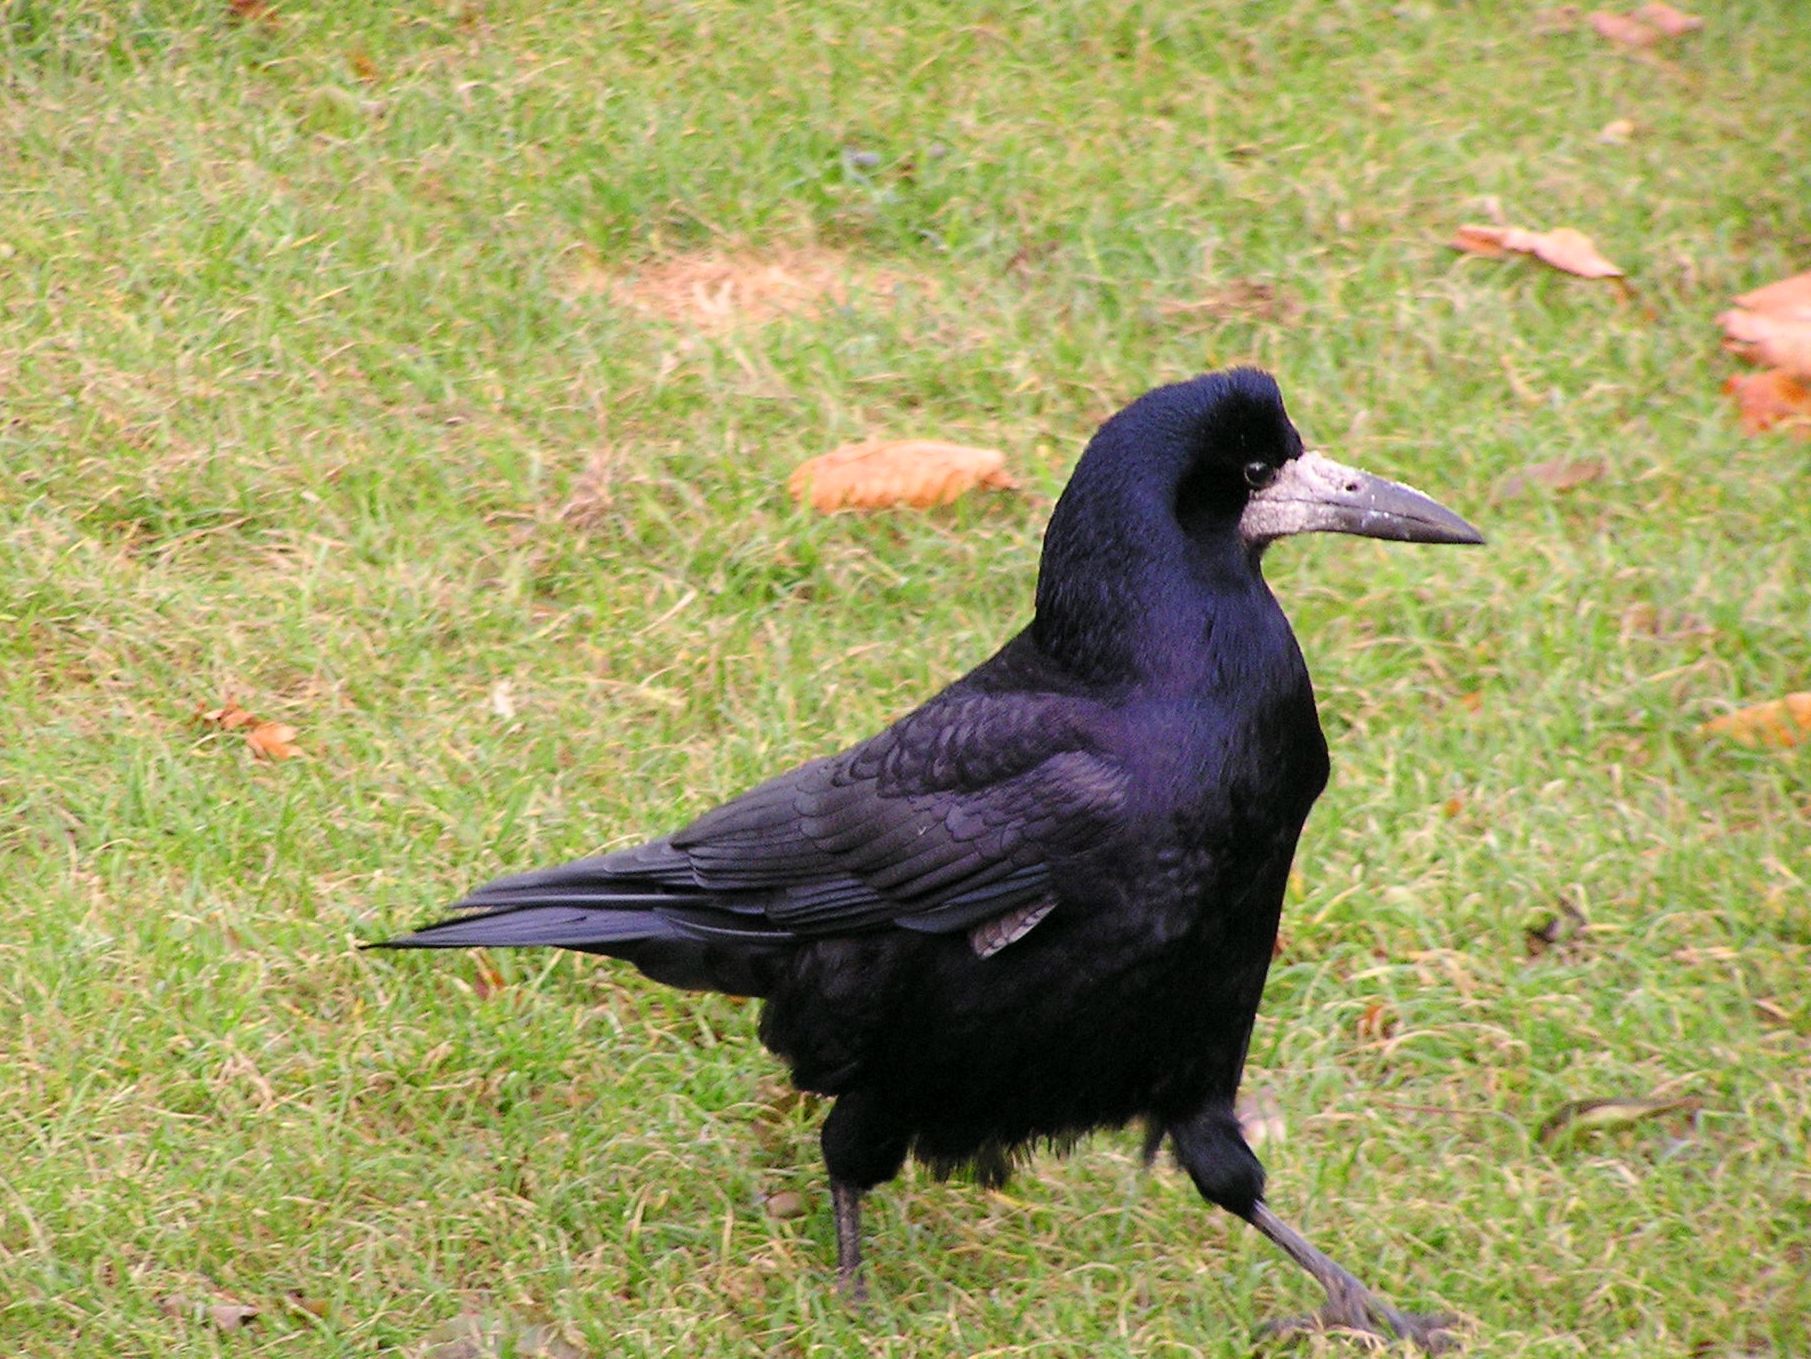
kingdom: Animalia
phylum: Chordata
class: Aves
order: Passeriformes
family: Corvidae
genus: Corvus
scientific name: Corvus frugilegus
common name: Rook
